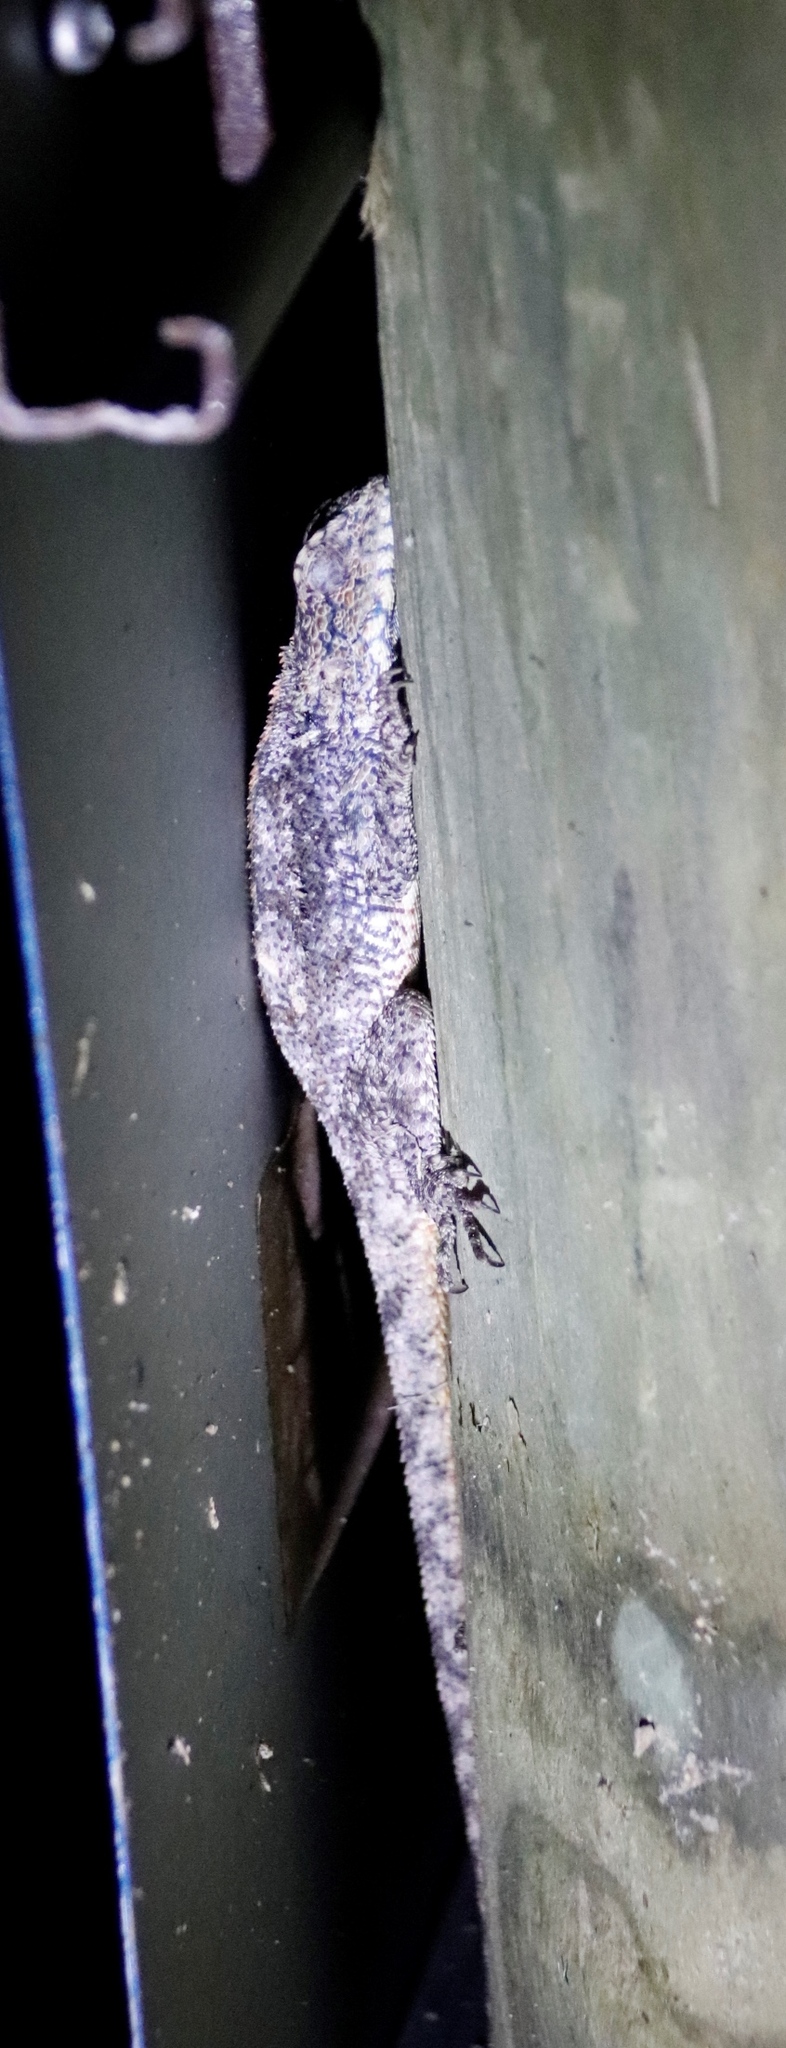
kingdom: Animalia
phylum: Chordata
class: Squamata
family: Agamidae
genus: Agama
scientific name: Agama atra
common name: Southern african rock agama
